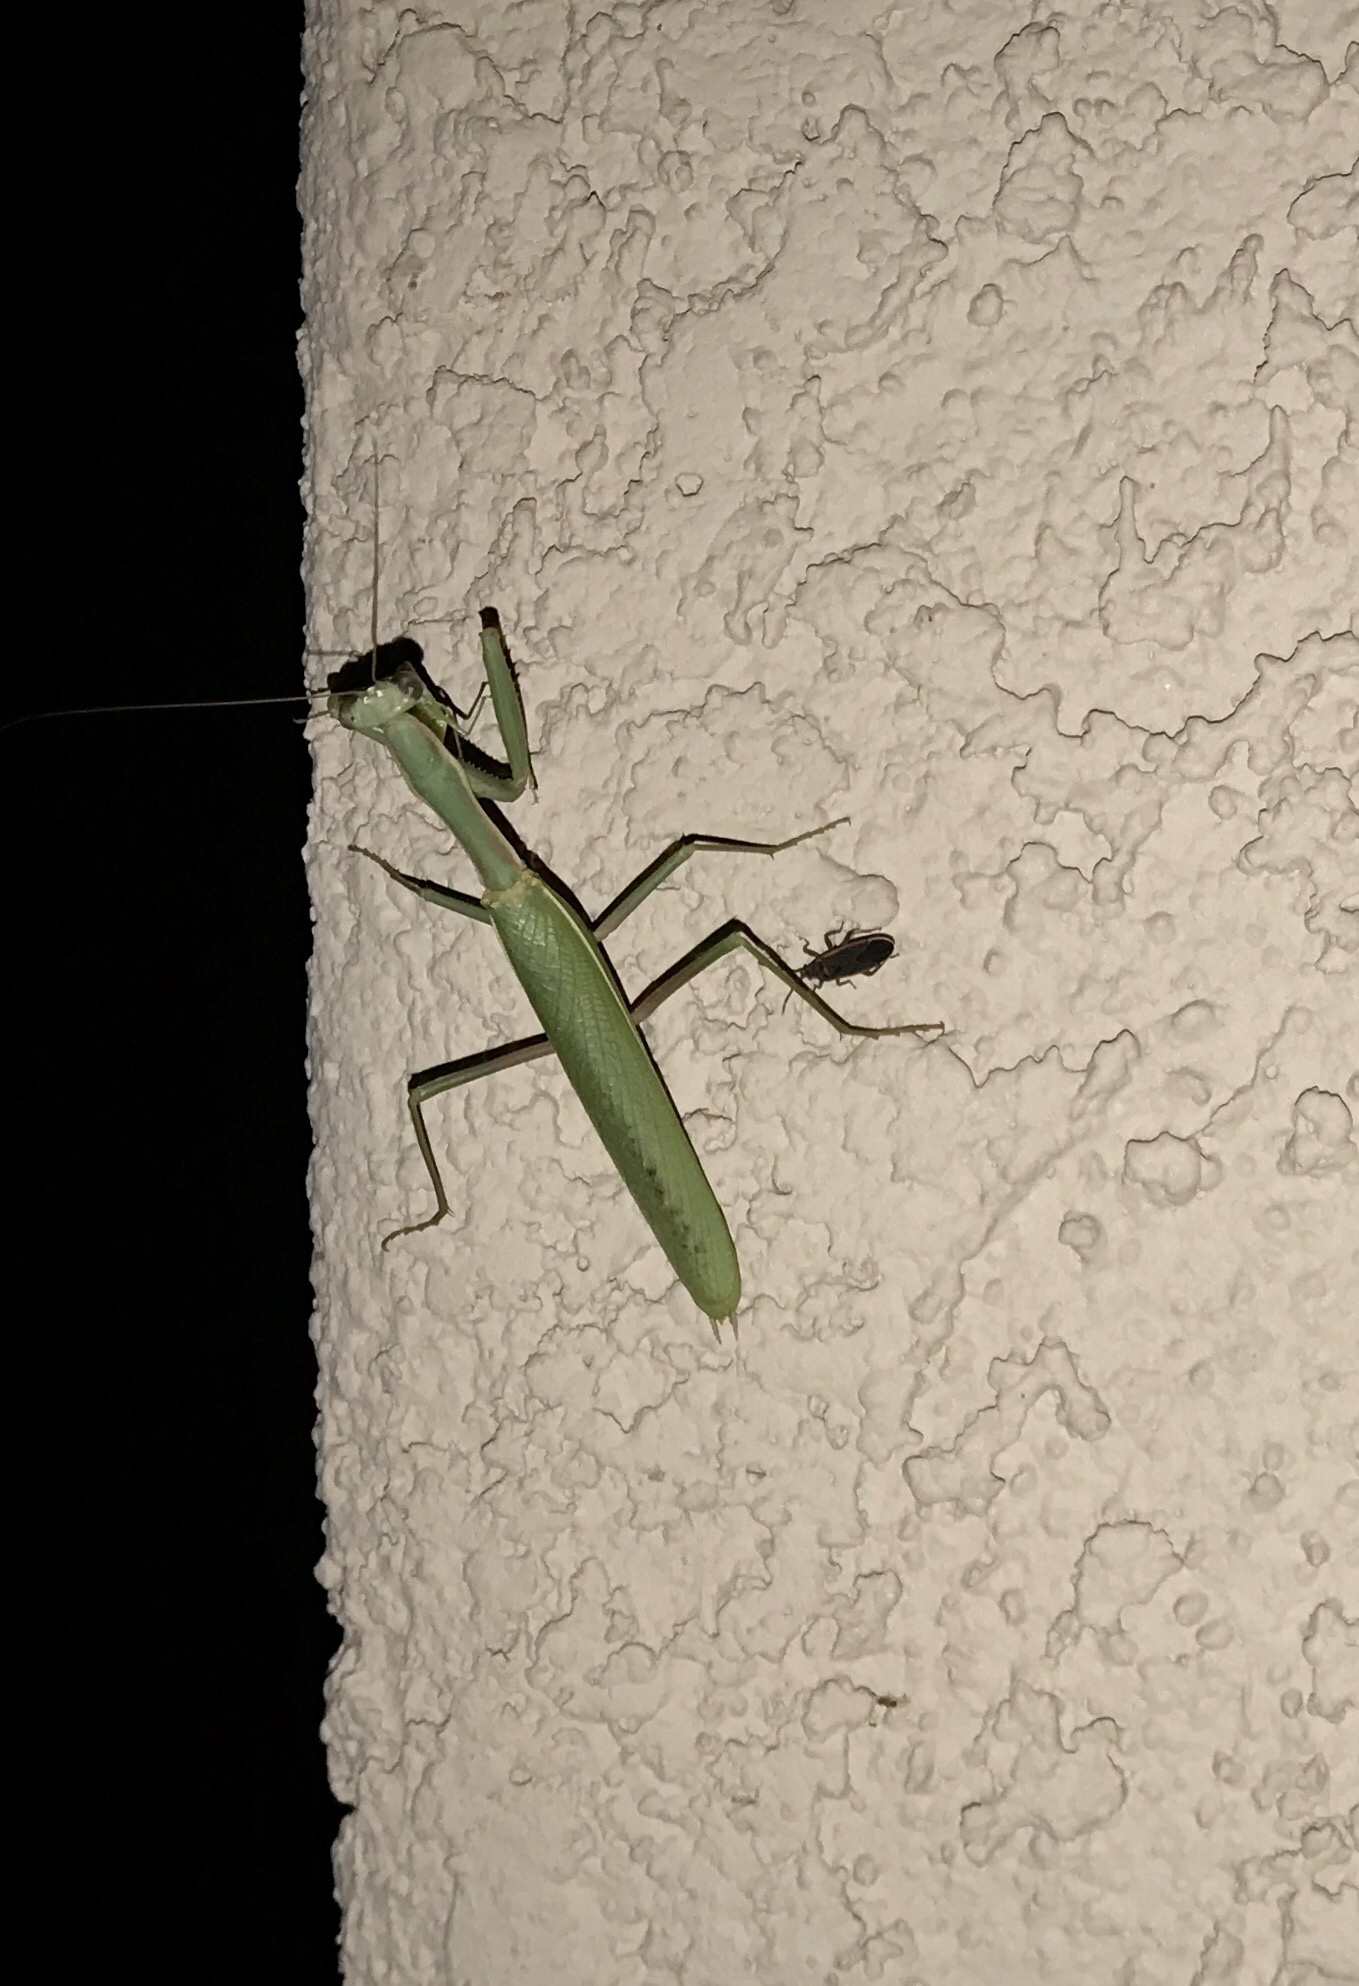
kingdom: Animalia
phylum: Arthropoda
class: Insecta
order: Mantodea
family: Eremiaphilidae
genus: Iris
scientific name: Iris oratoria
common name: Mediterranean mantis
